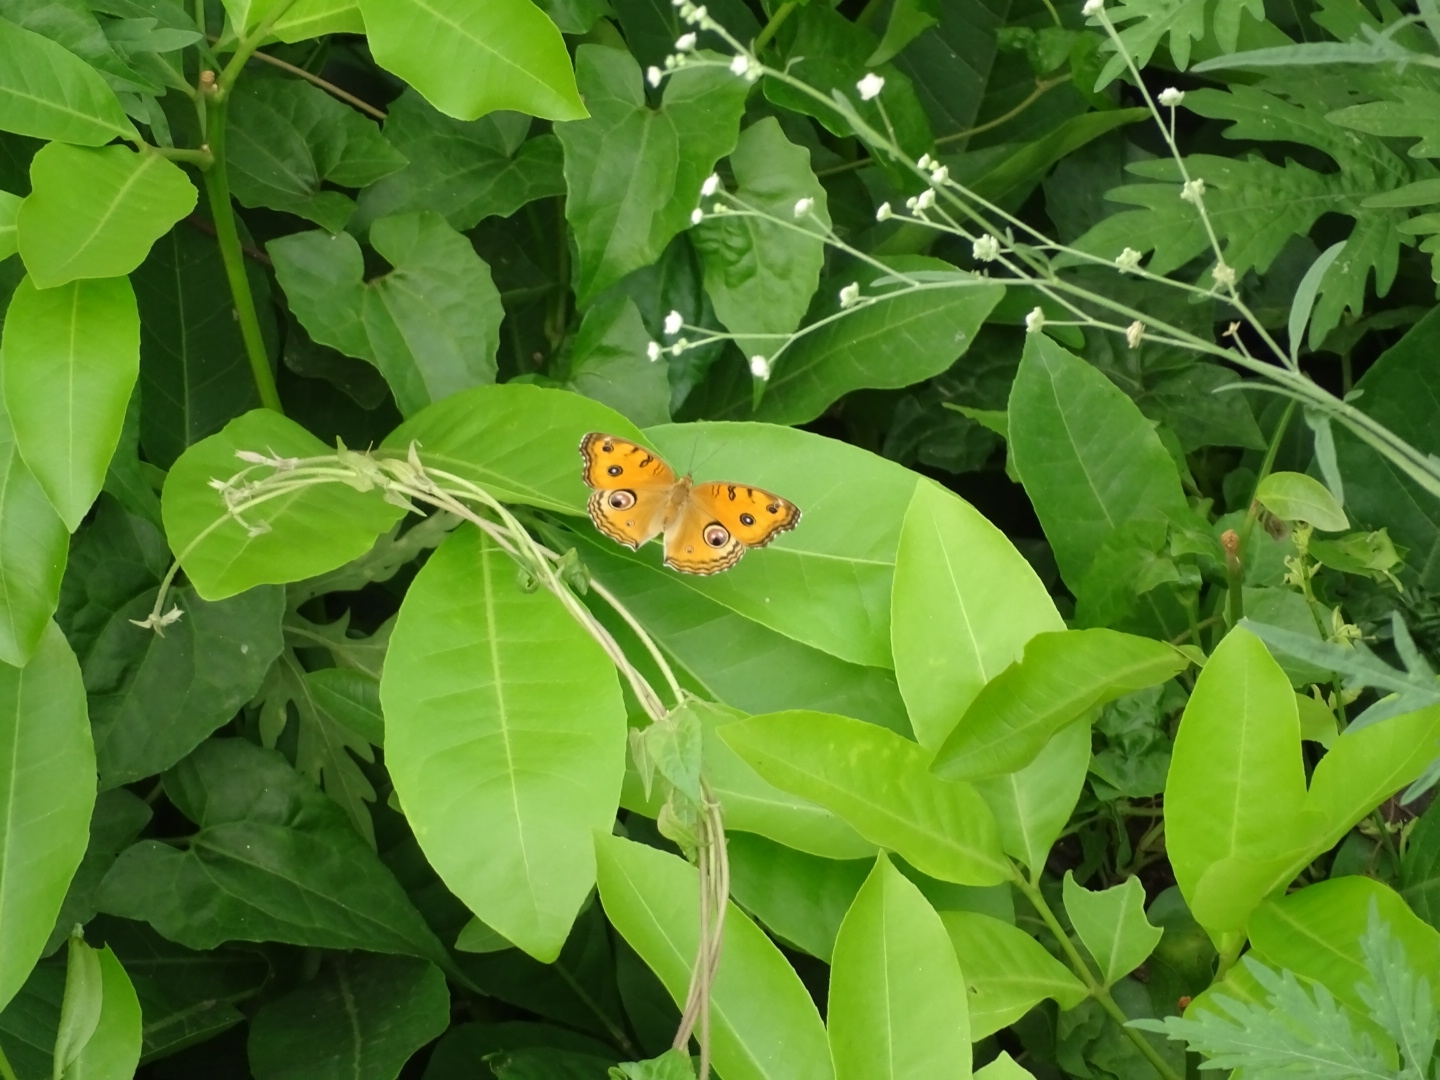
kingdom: Animalia
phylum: Arthropoda
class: Insecta
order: Lepidoptera
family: Nymphalidae
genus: Junonia
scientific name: Junonia almana
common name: Peacock pansy
